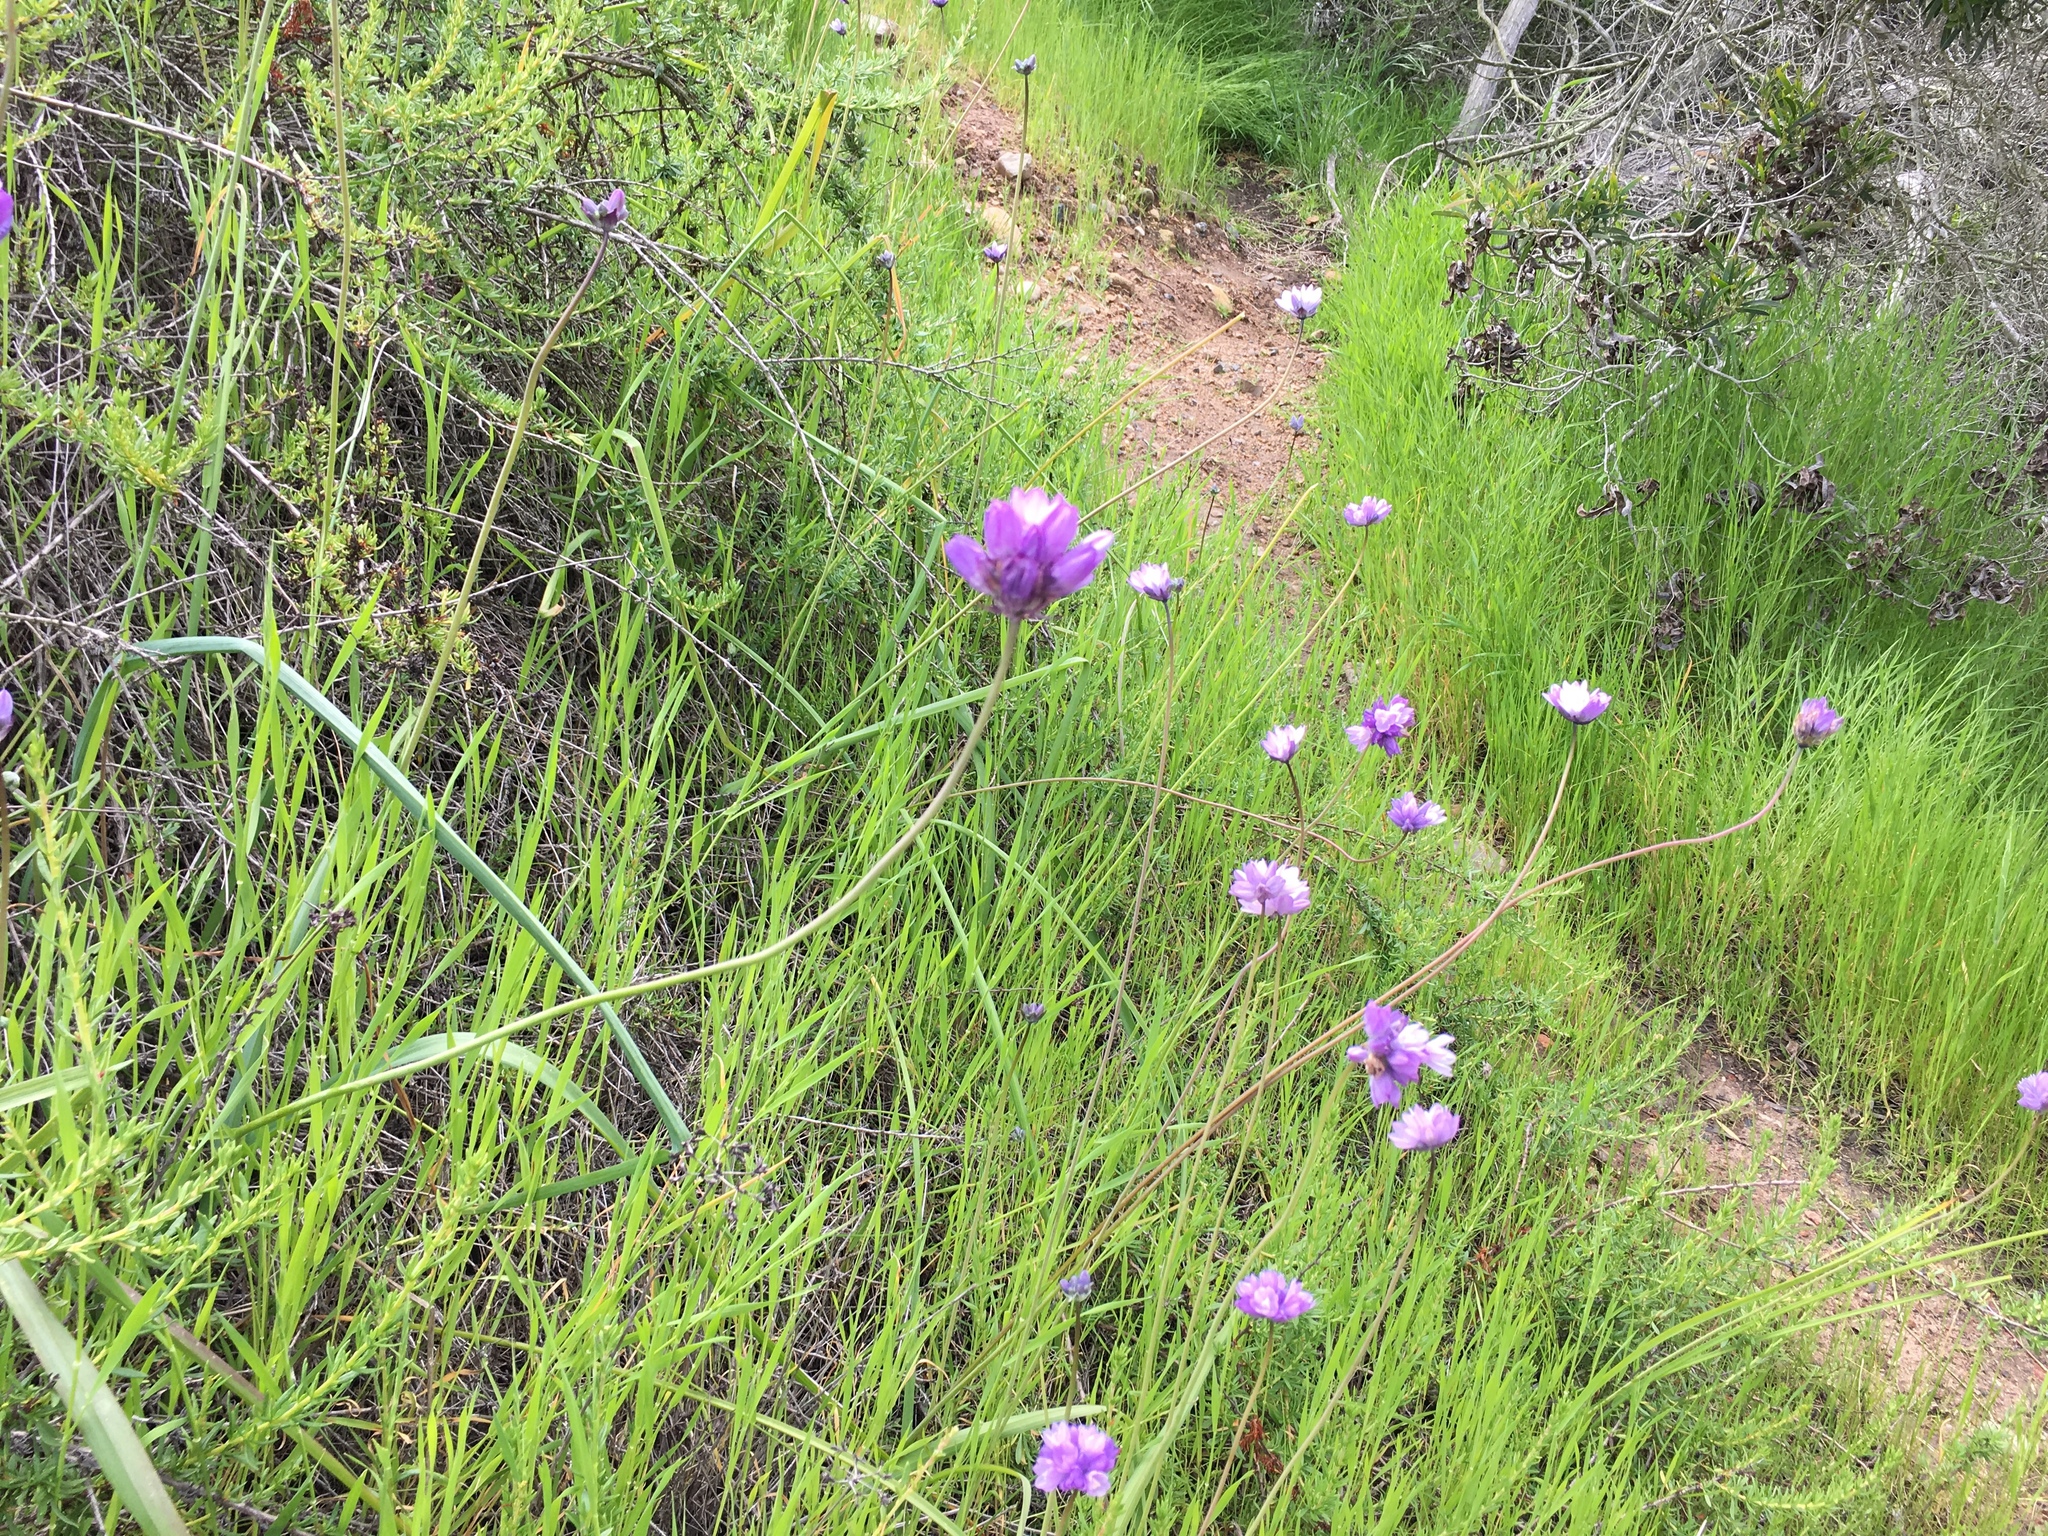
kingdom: Plantae
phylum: Tracheophyta
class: Liliopsida
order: Asparagales
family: Asparagaceae
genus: Dipterostemon
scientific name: Dipterostemon capitatus
